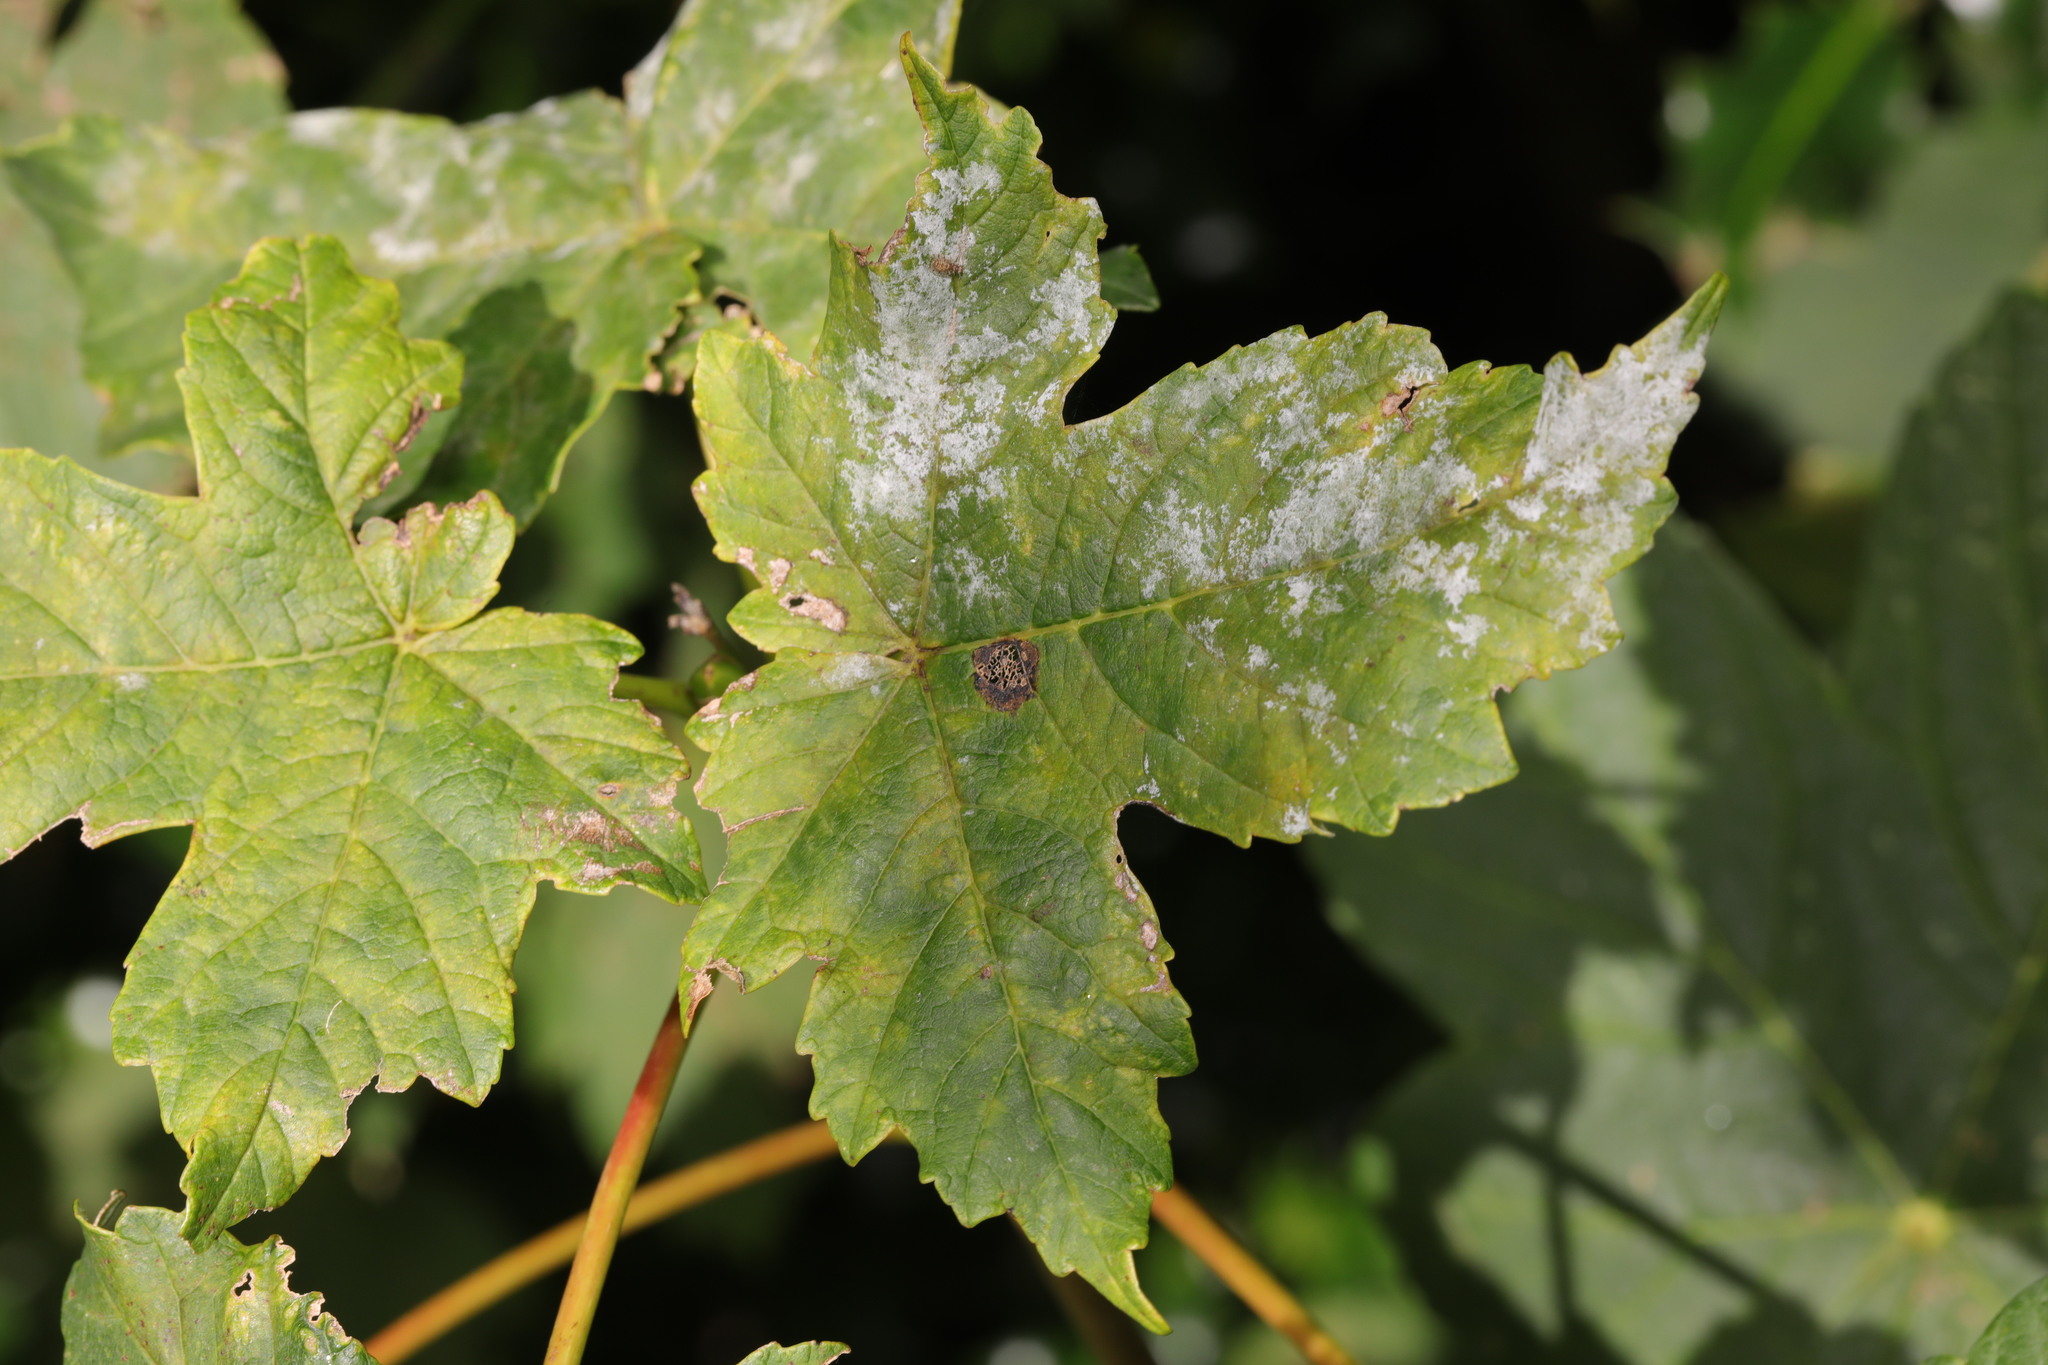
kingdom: Fungi
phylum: Ascomycota
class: Leotiomycetes
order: Helotiales
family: Erysiphaceae
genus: Sawadaea
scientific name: Sawadaea bicornis
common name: Maple mildew
